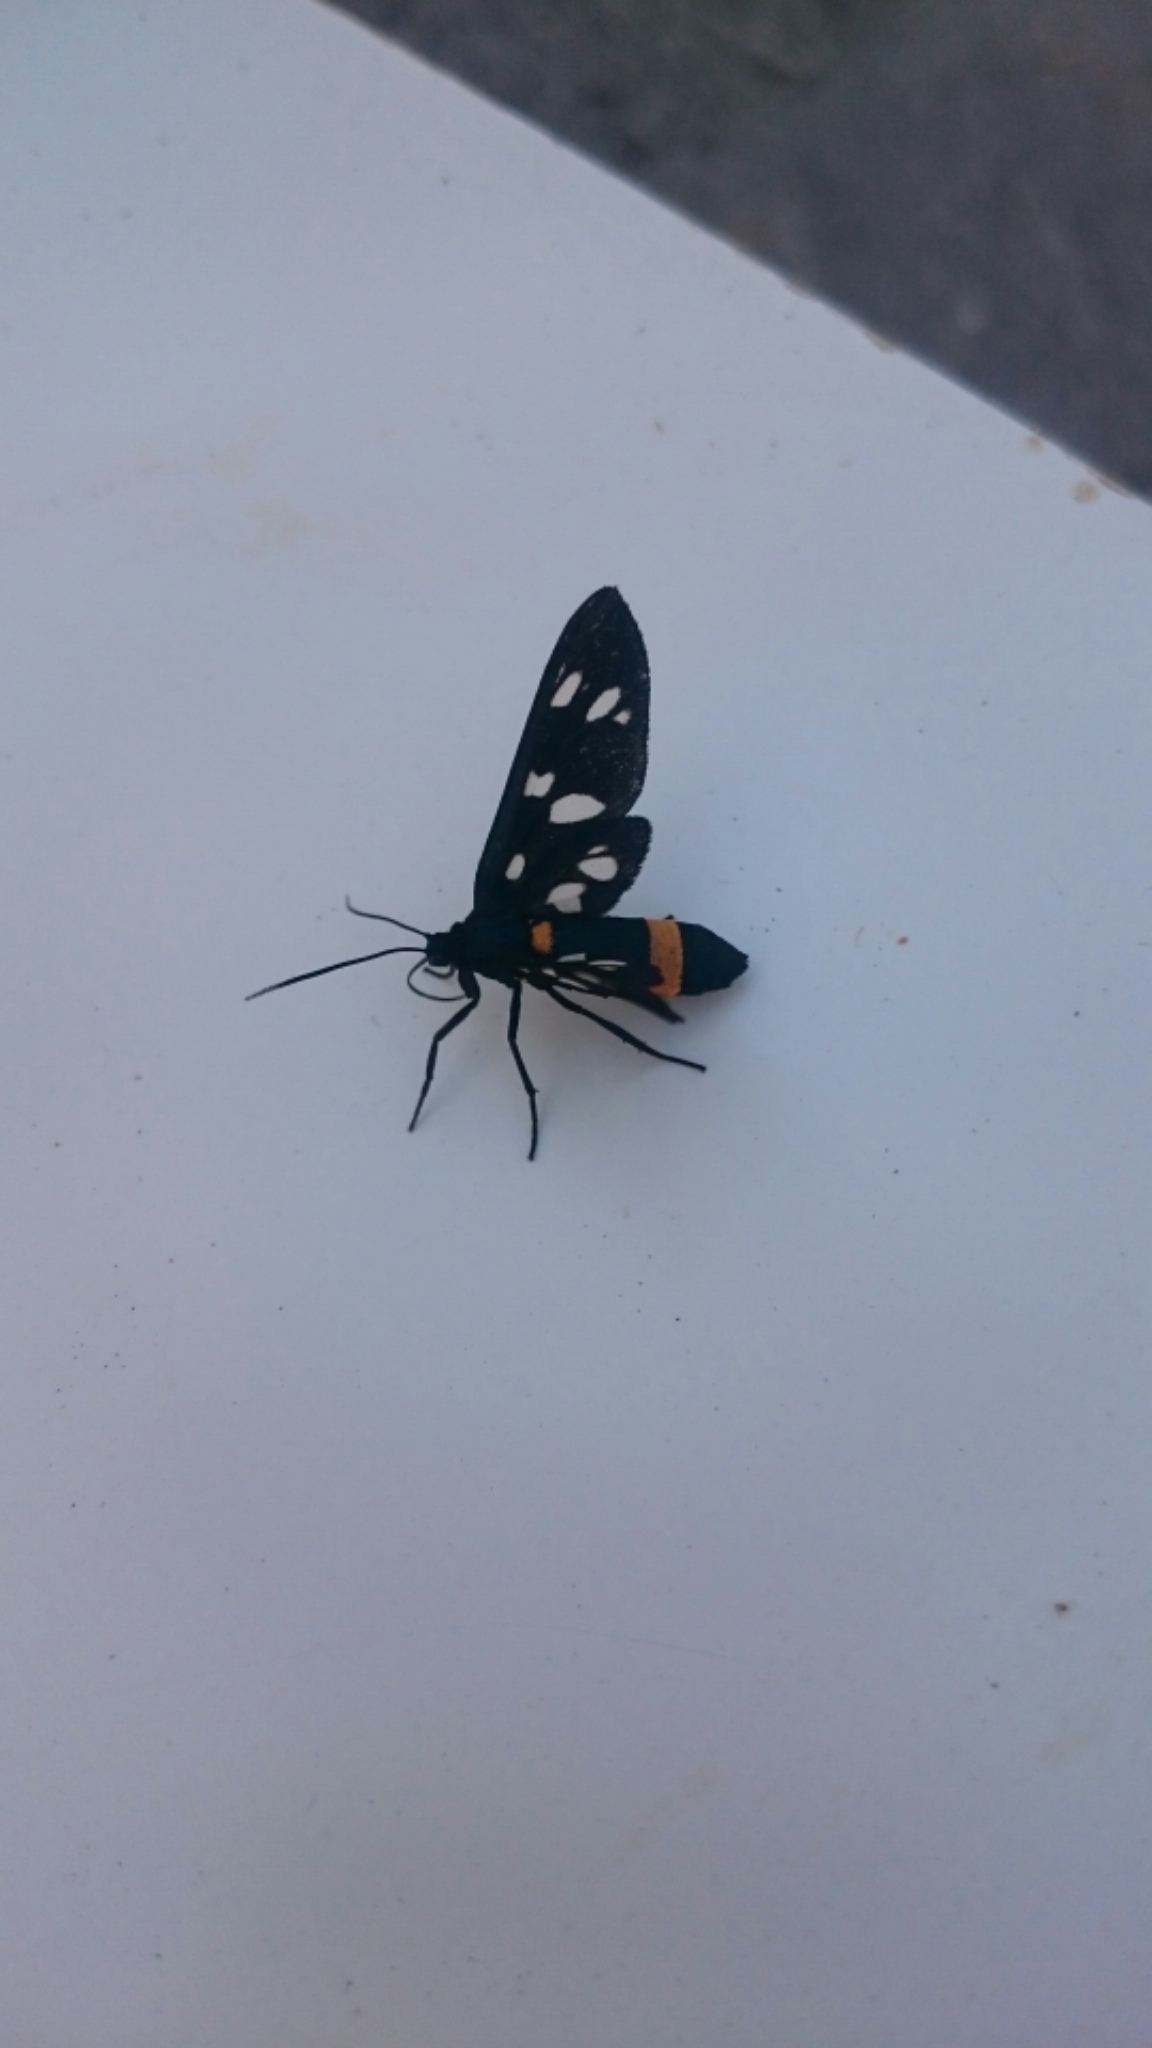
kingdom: Animalia
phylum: Arthropoda
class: Insecta
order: Lepidoptera
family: Erebidae
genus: Amata
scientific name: Amata phegea
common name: Nine-spotted
